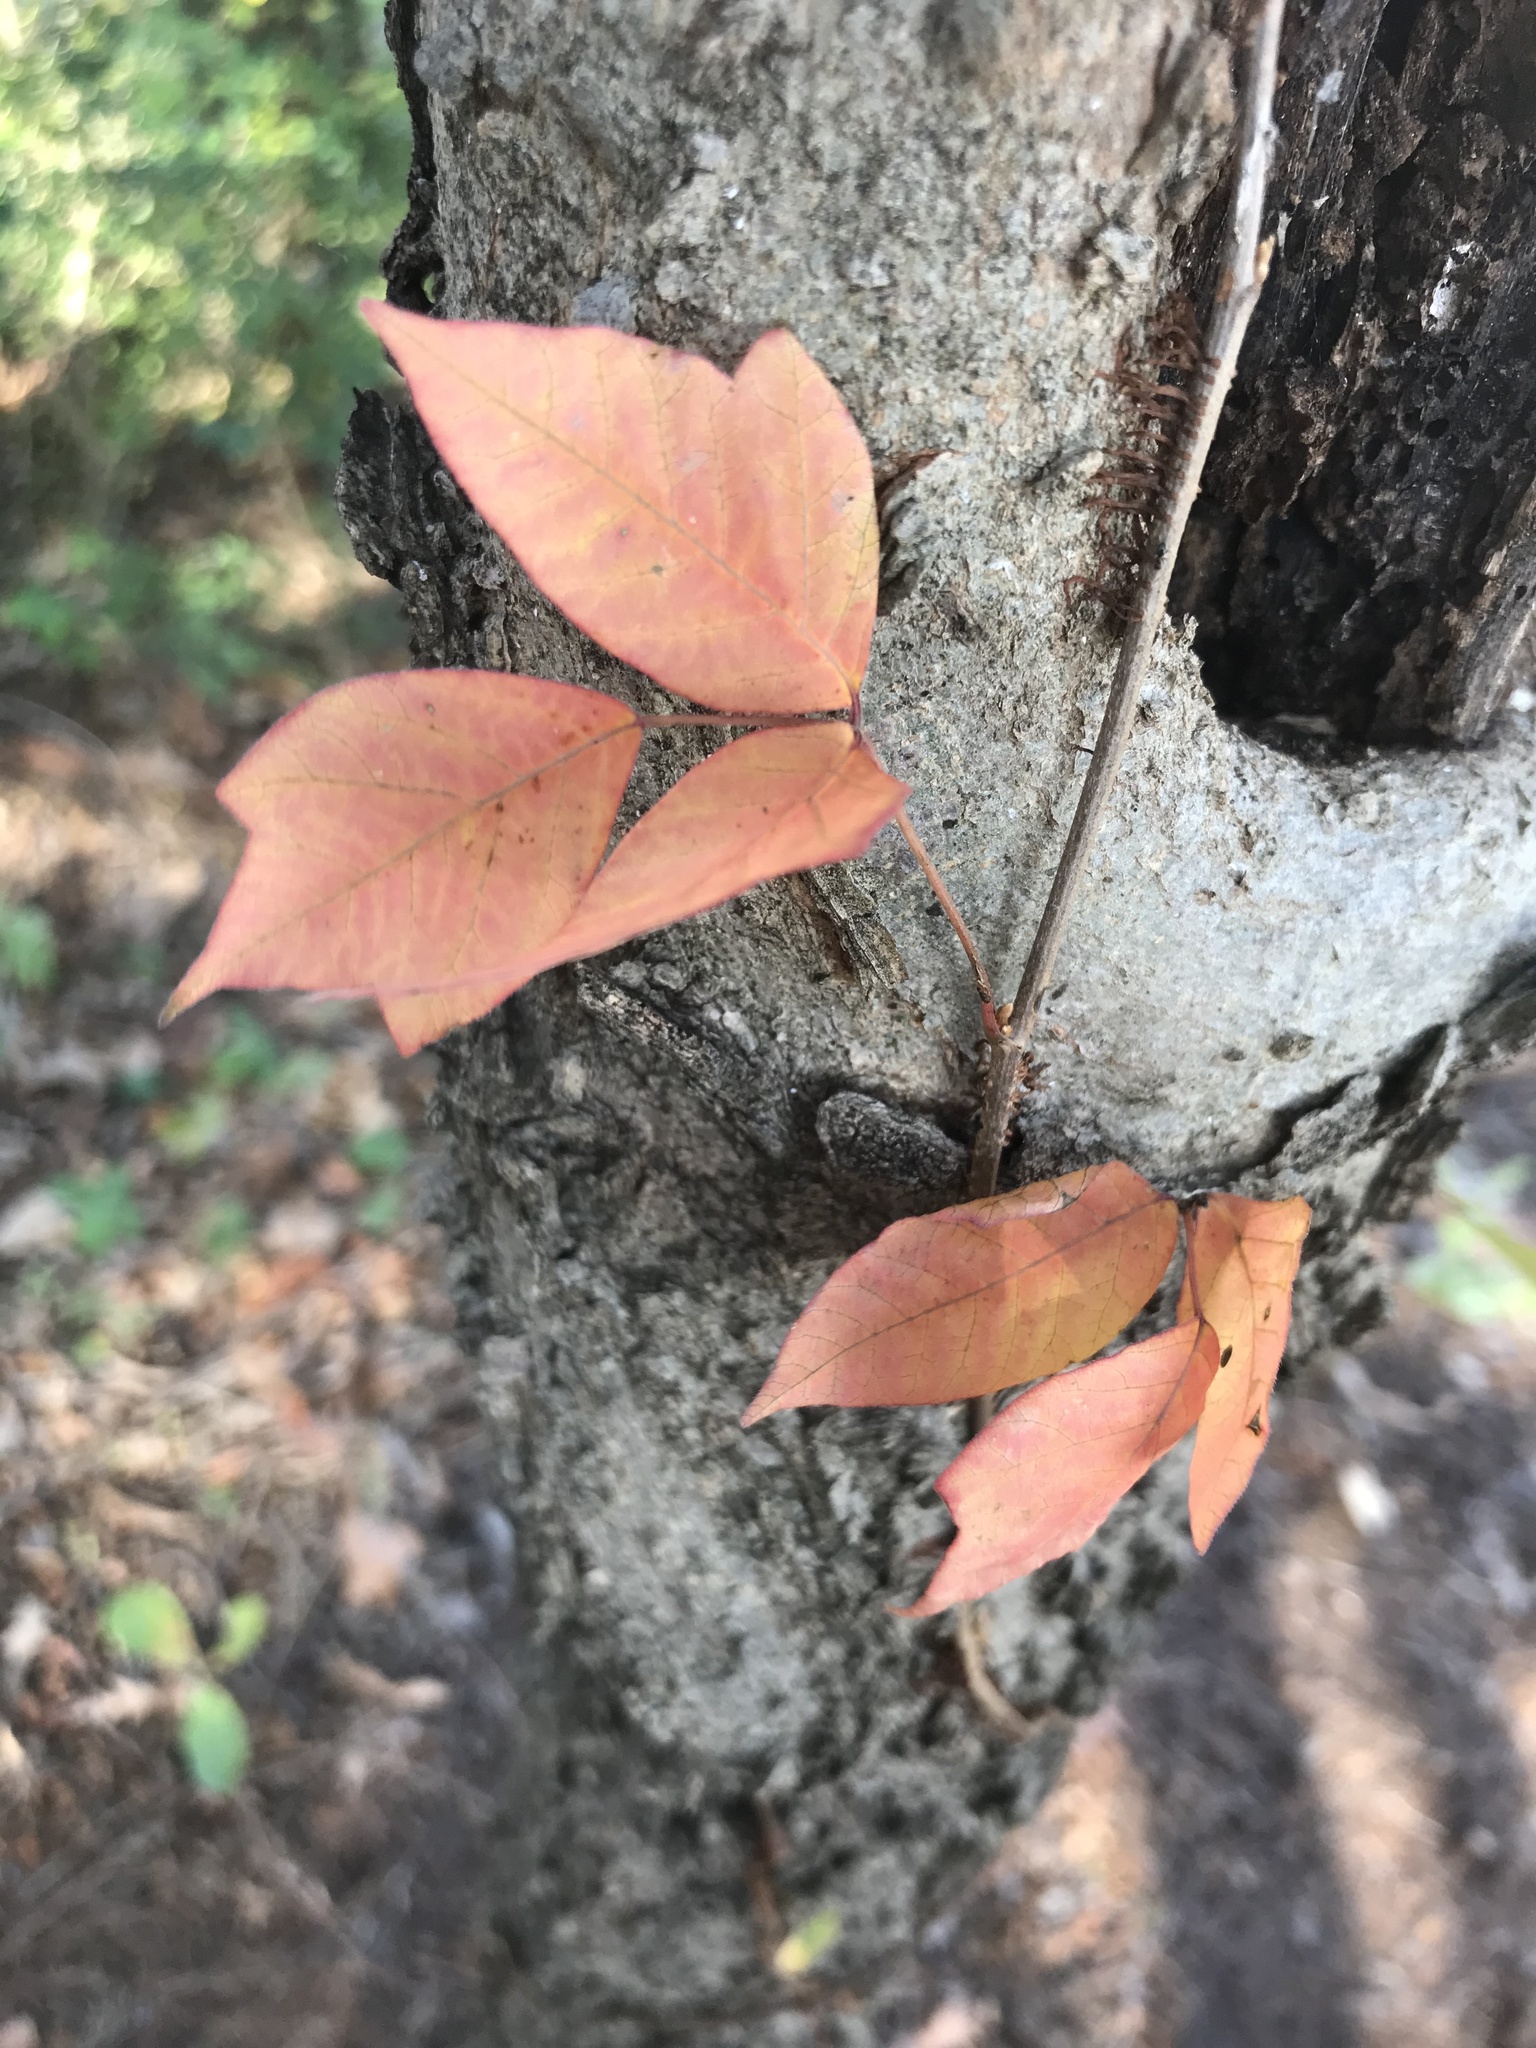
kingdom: Plantae
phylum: Tracheophyta
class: Magnoliopsida
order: Sapindales
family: Anacardiaceae
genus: Toxicodendron
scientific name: Toxicodendron radicans
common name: Poison ivy
